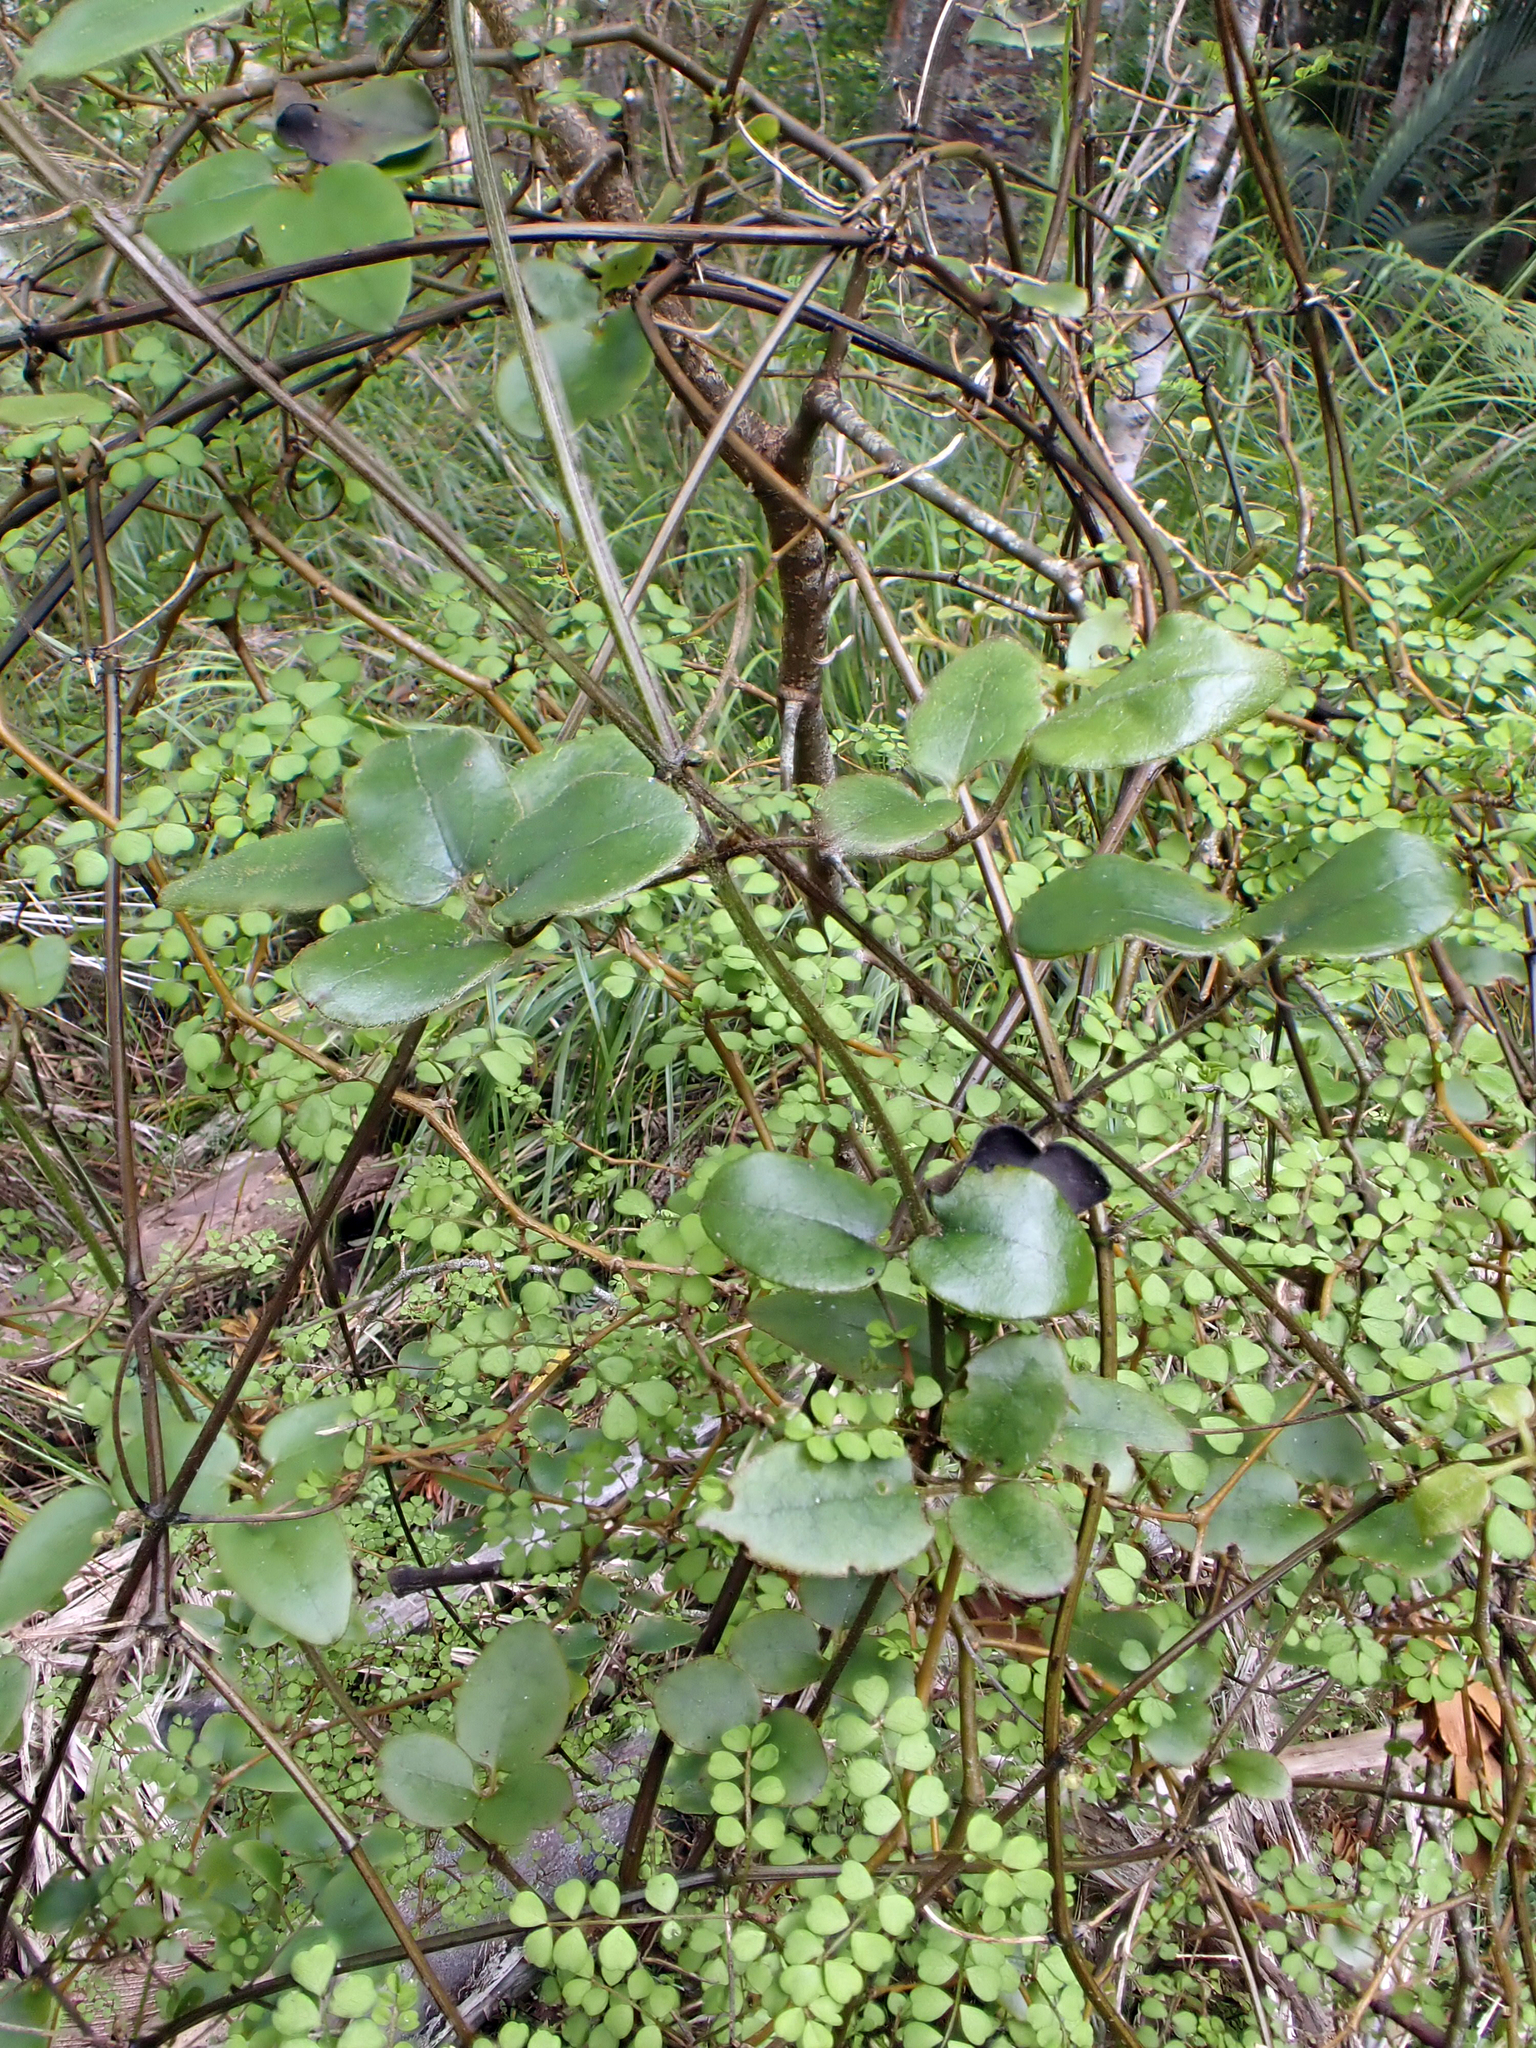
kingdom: Plantae
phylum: Tracheophyta
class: Magnoliopsida
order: Ranunculales
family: Ranunculaceae
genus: Clematis
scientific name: Clematis cunninghamii
